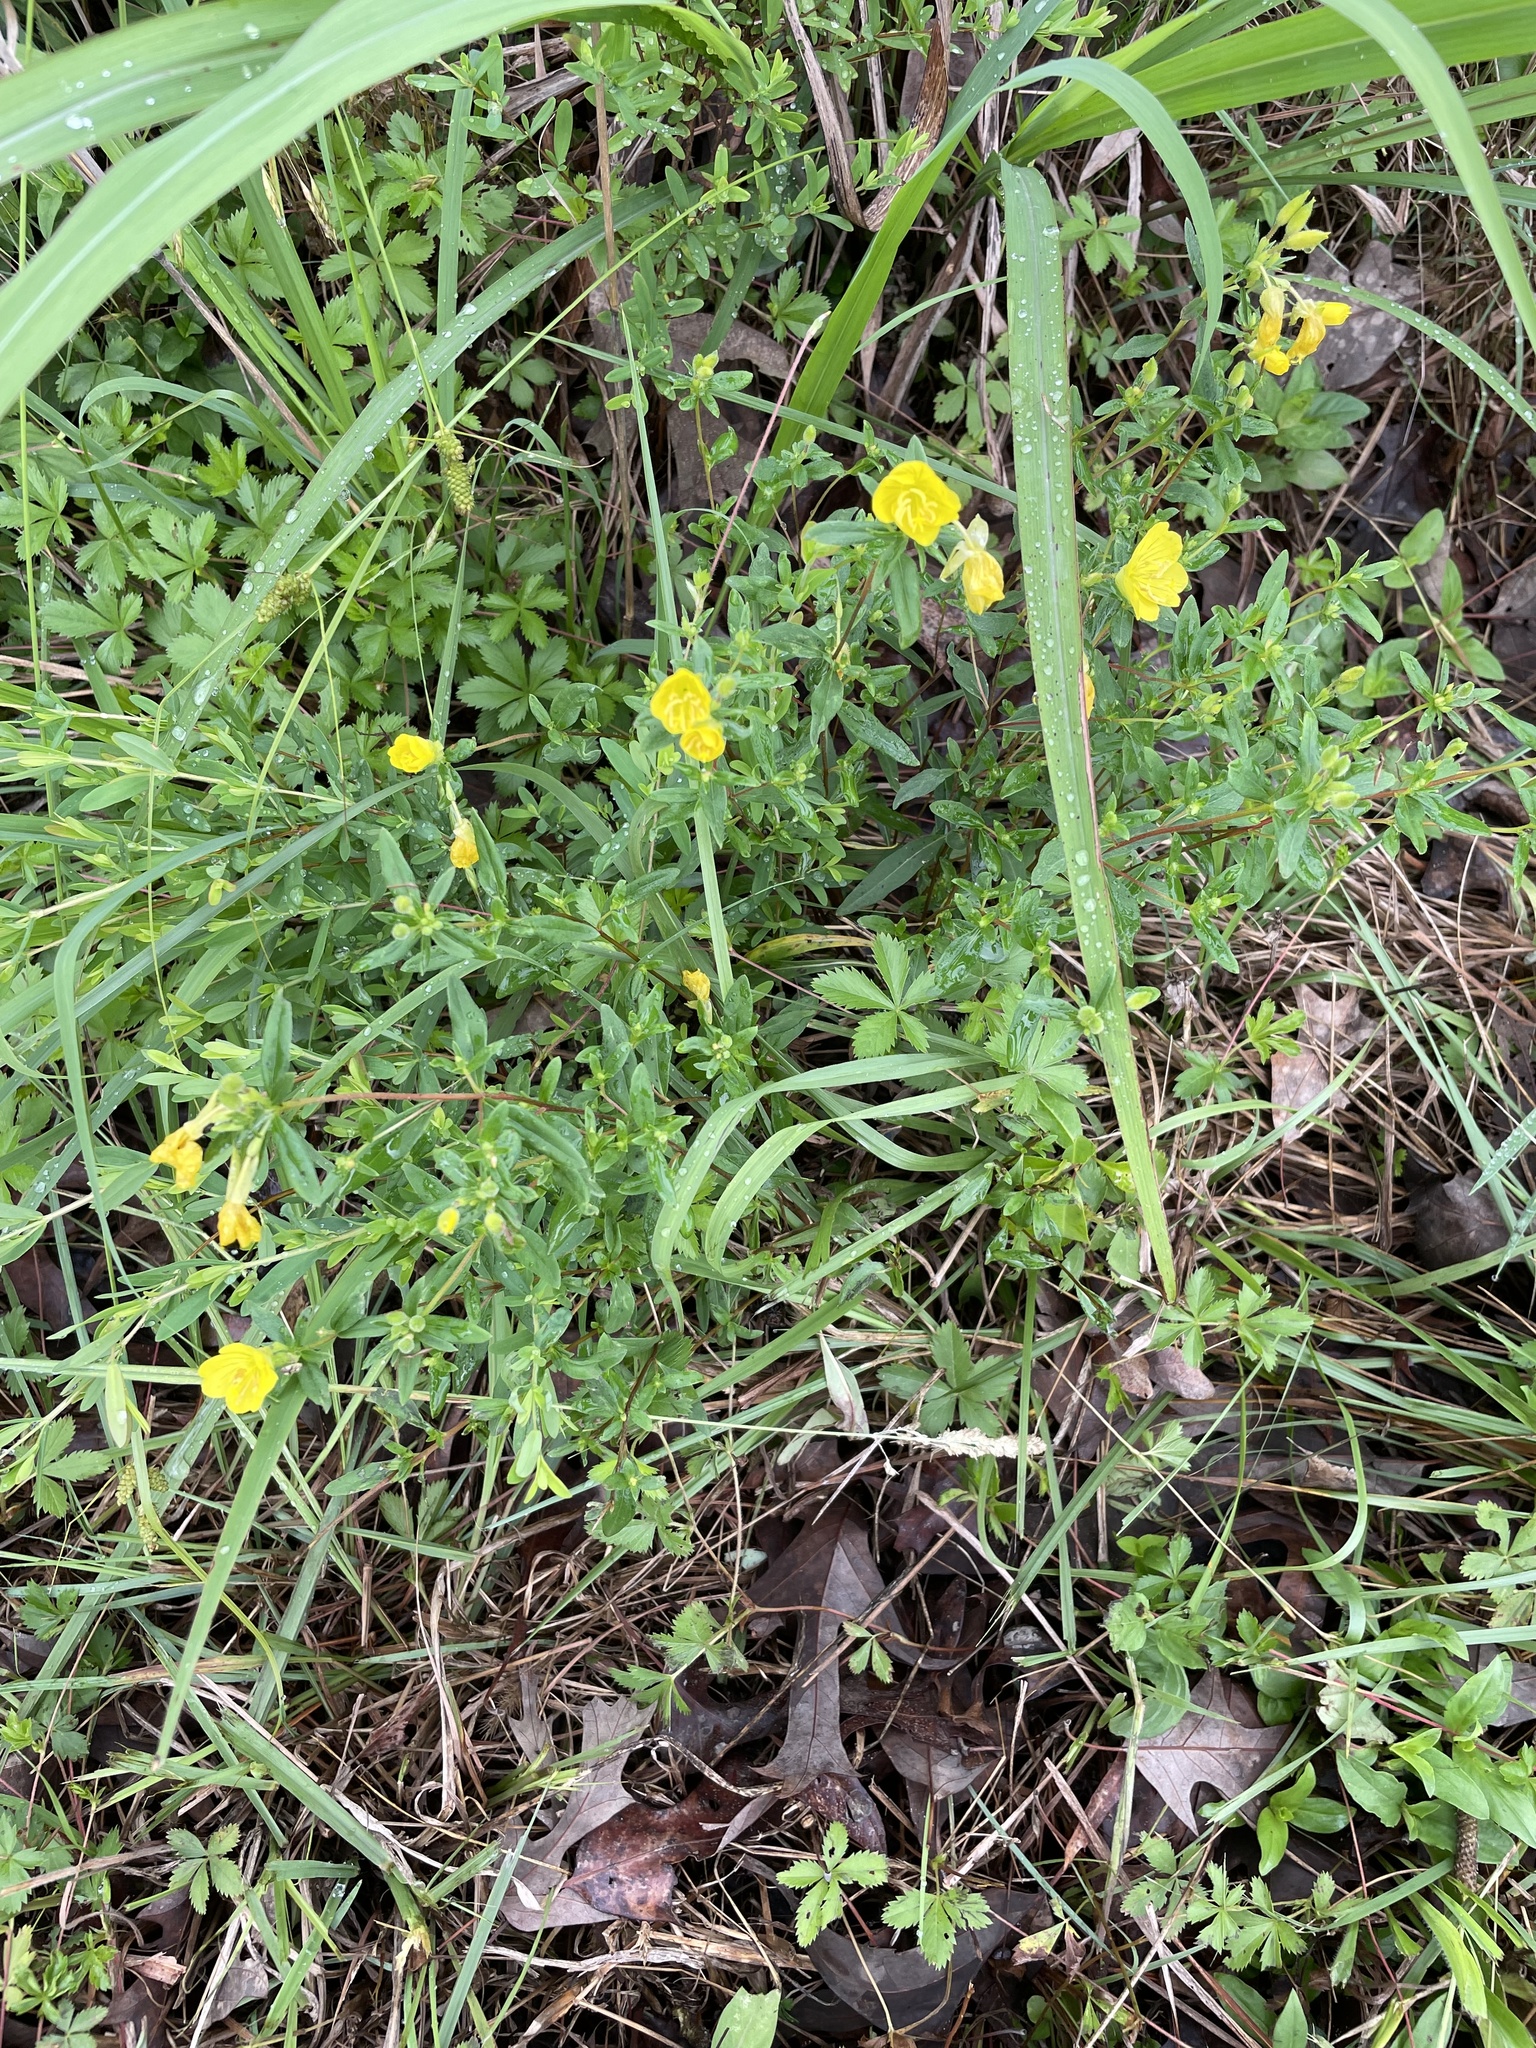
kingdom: Plantae
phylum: Tracheophyta
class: Magnoliopsida
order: Myrtales
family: Onagraceae
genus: Oenothera
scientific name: Oenothera fruticosa
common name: Southern sundrops
